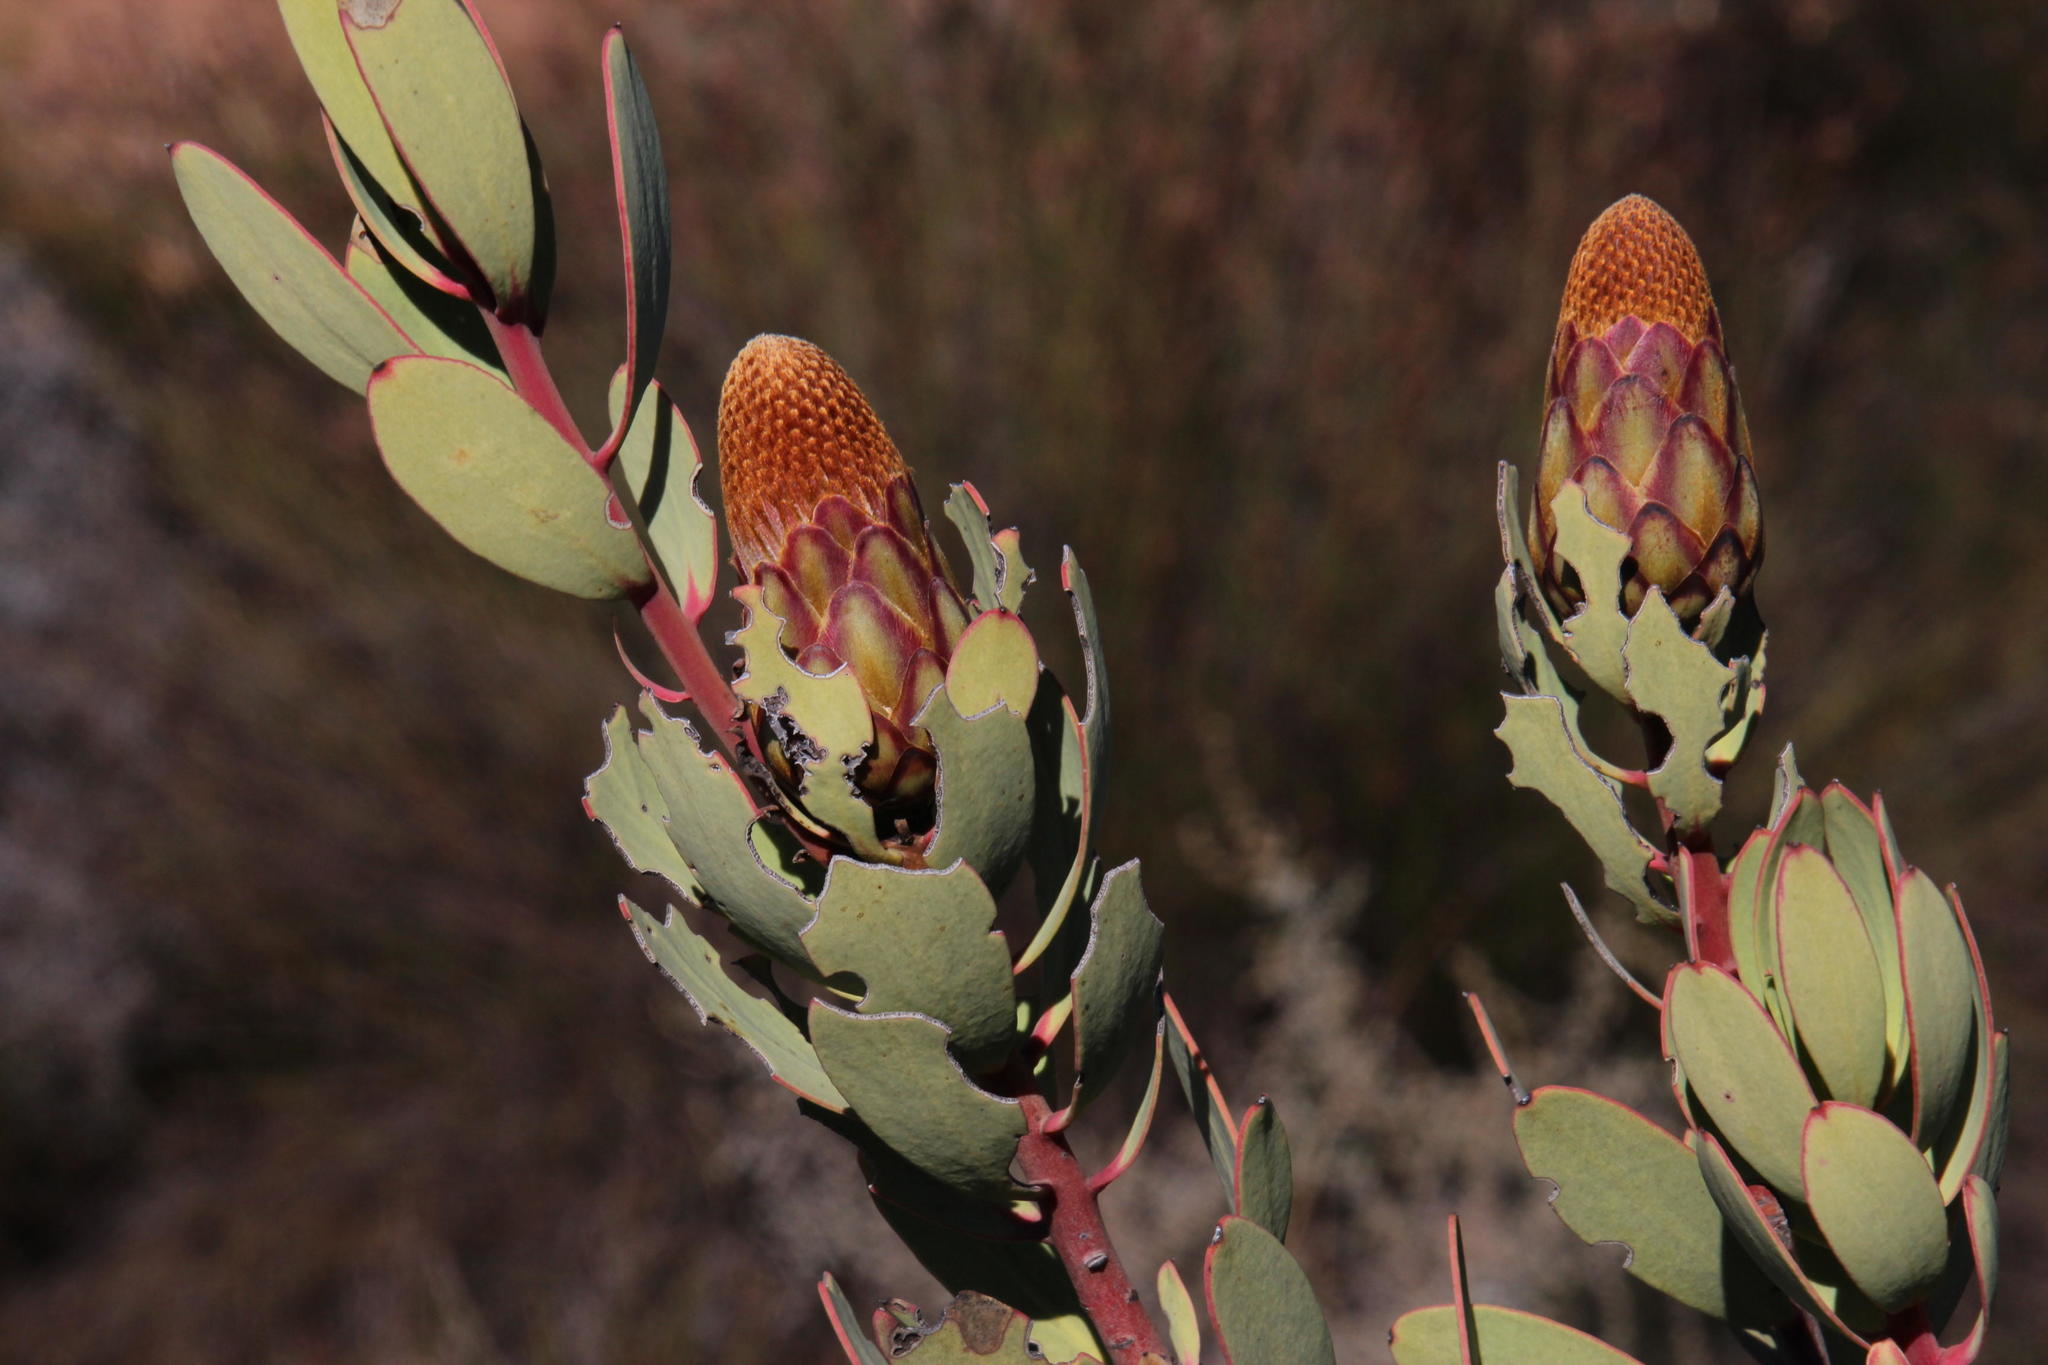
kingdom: Plantae
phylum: Tracheophyta
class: Magnoliopsida
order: Proteales
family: Proteaceae
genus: Protea
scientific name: Protea glabra
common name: Chestnut sugarbush
